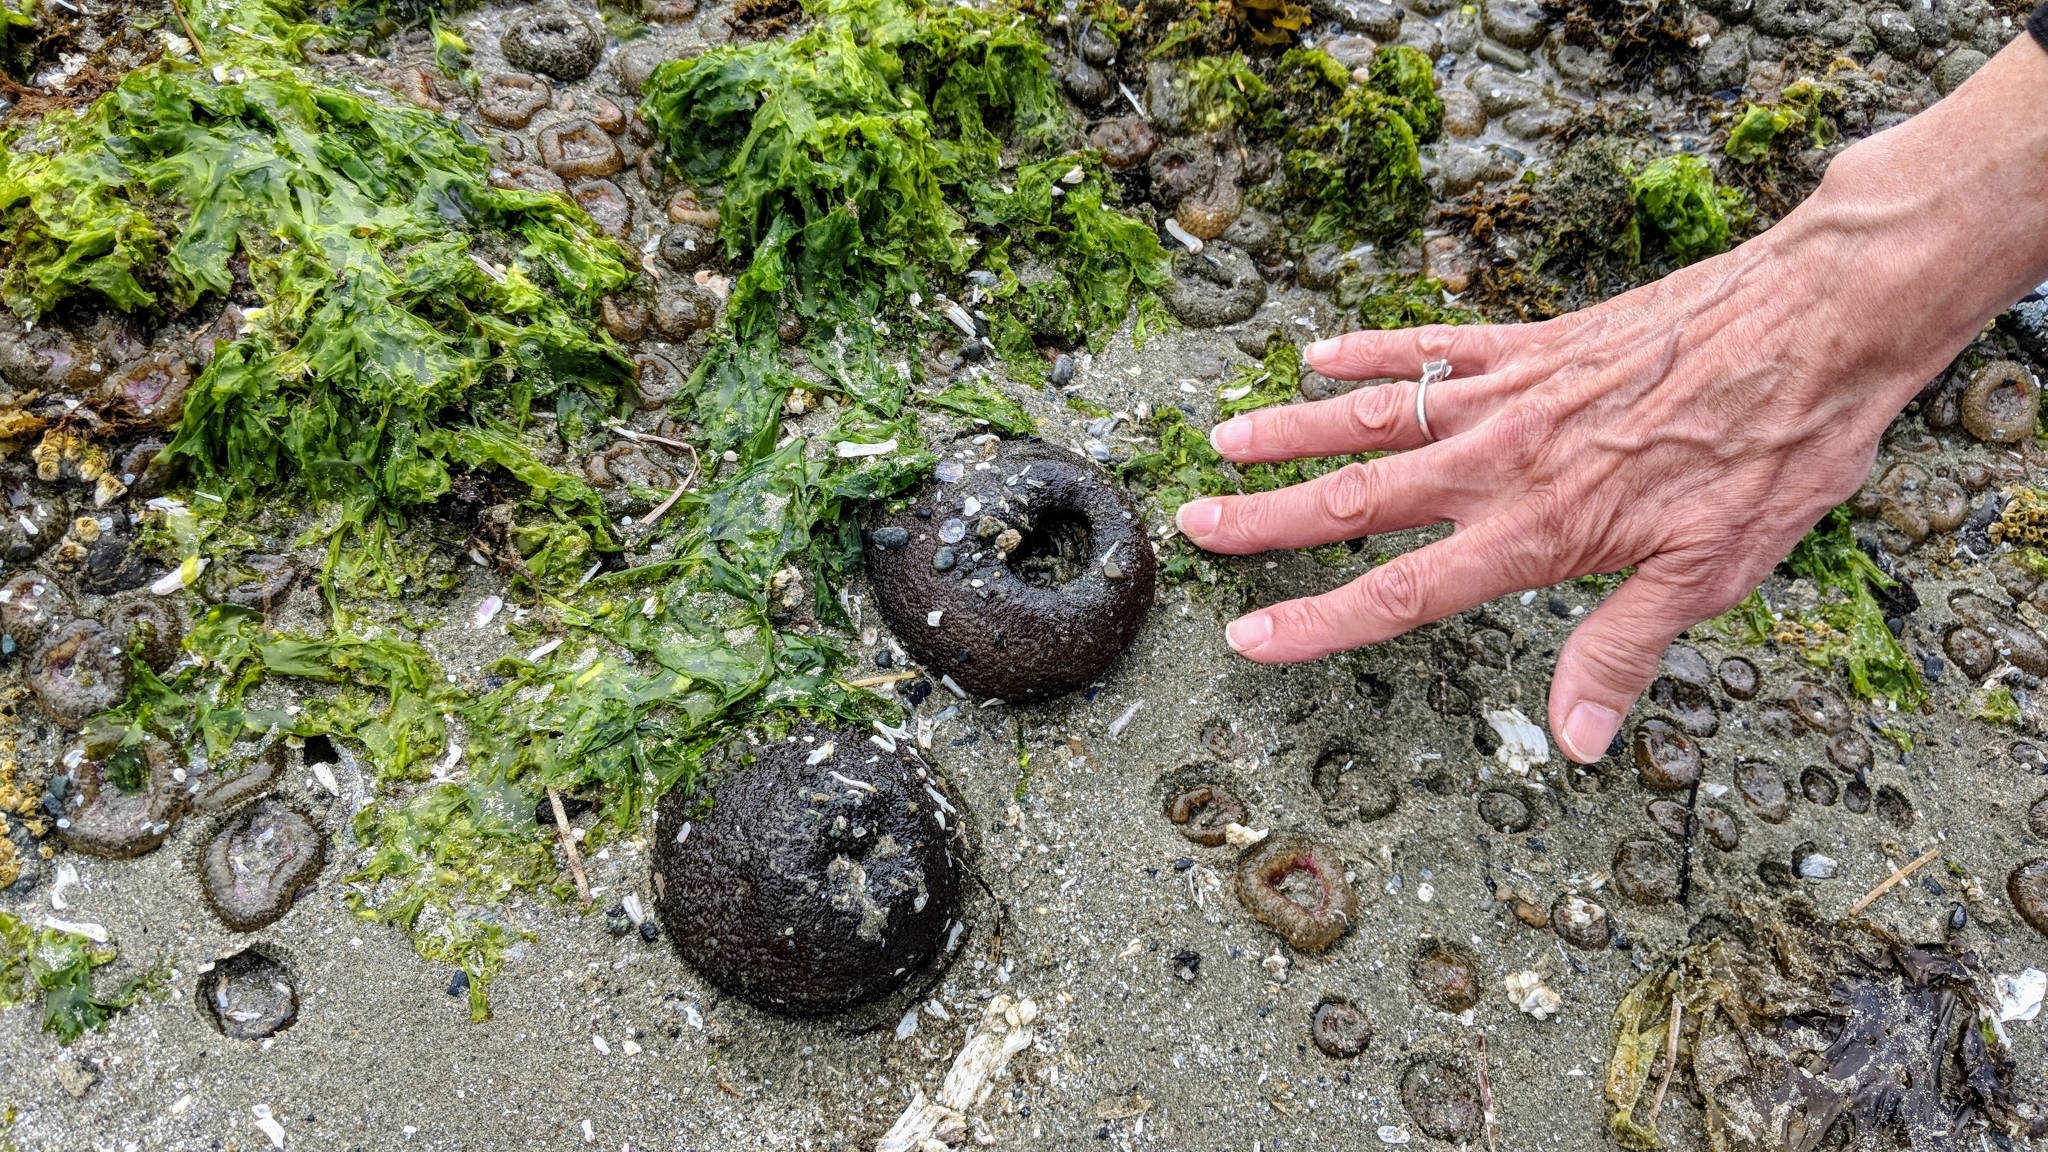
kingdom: Animalia
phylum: Cnidaria
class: Anthozoa
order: Actiniaria
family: Actiniidae
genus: Anthopleura
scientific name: Anthopleura xanthogrammica
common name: Giant green anemone
